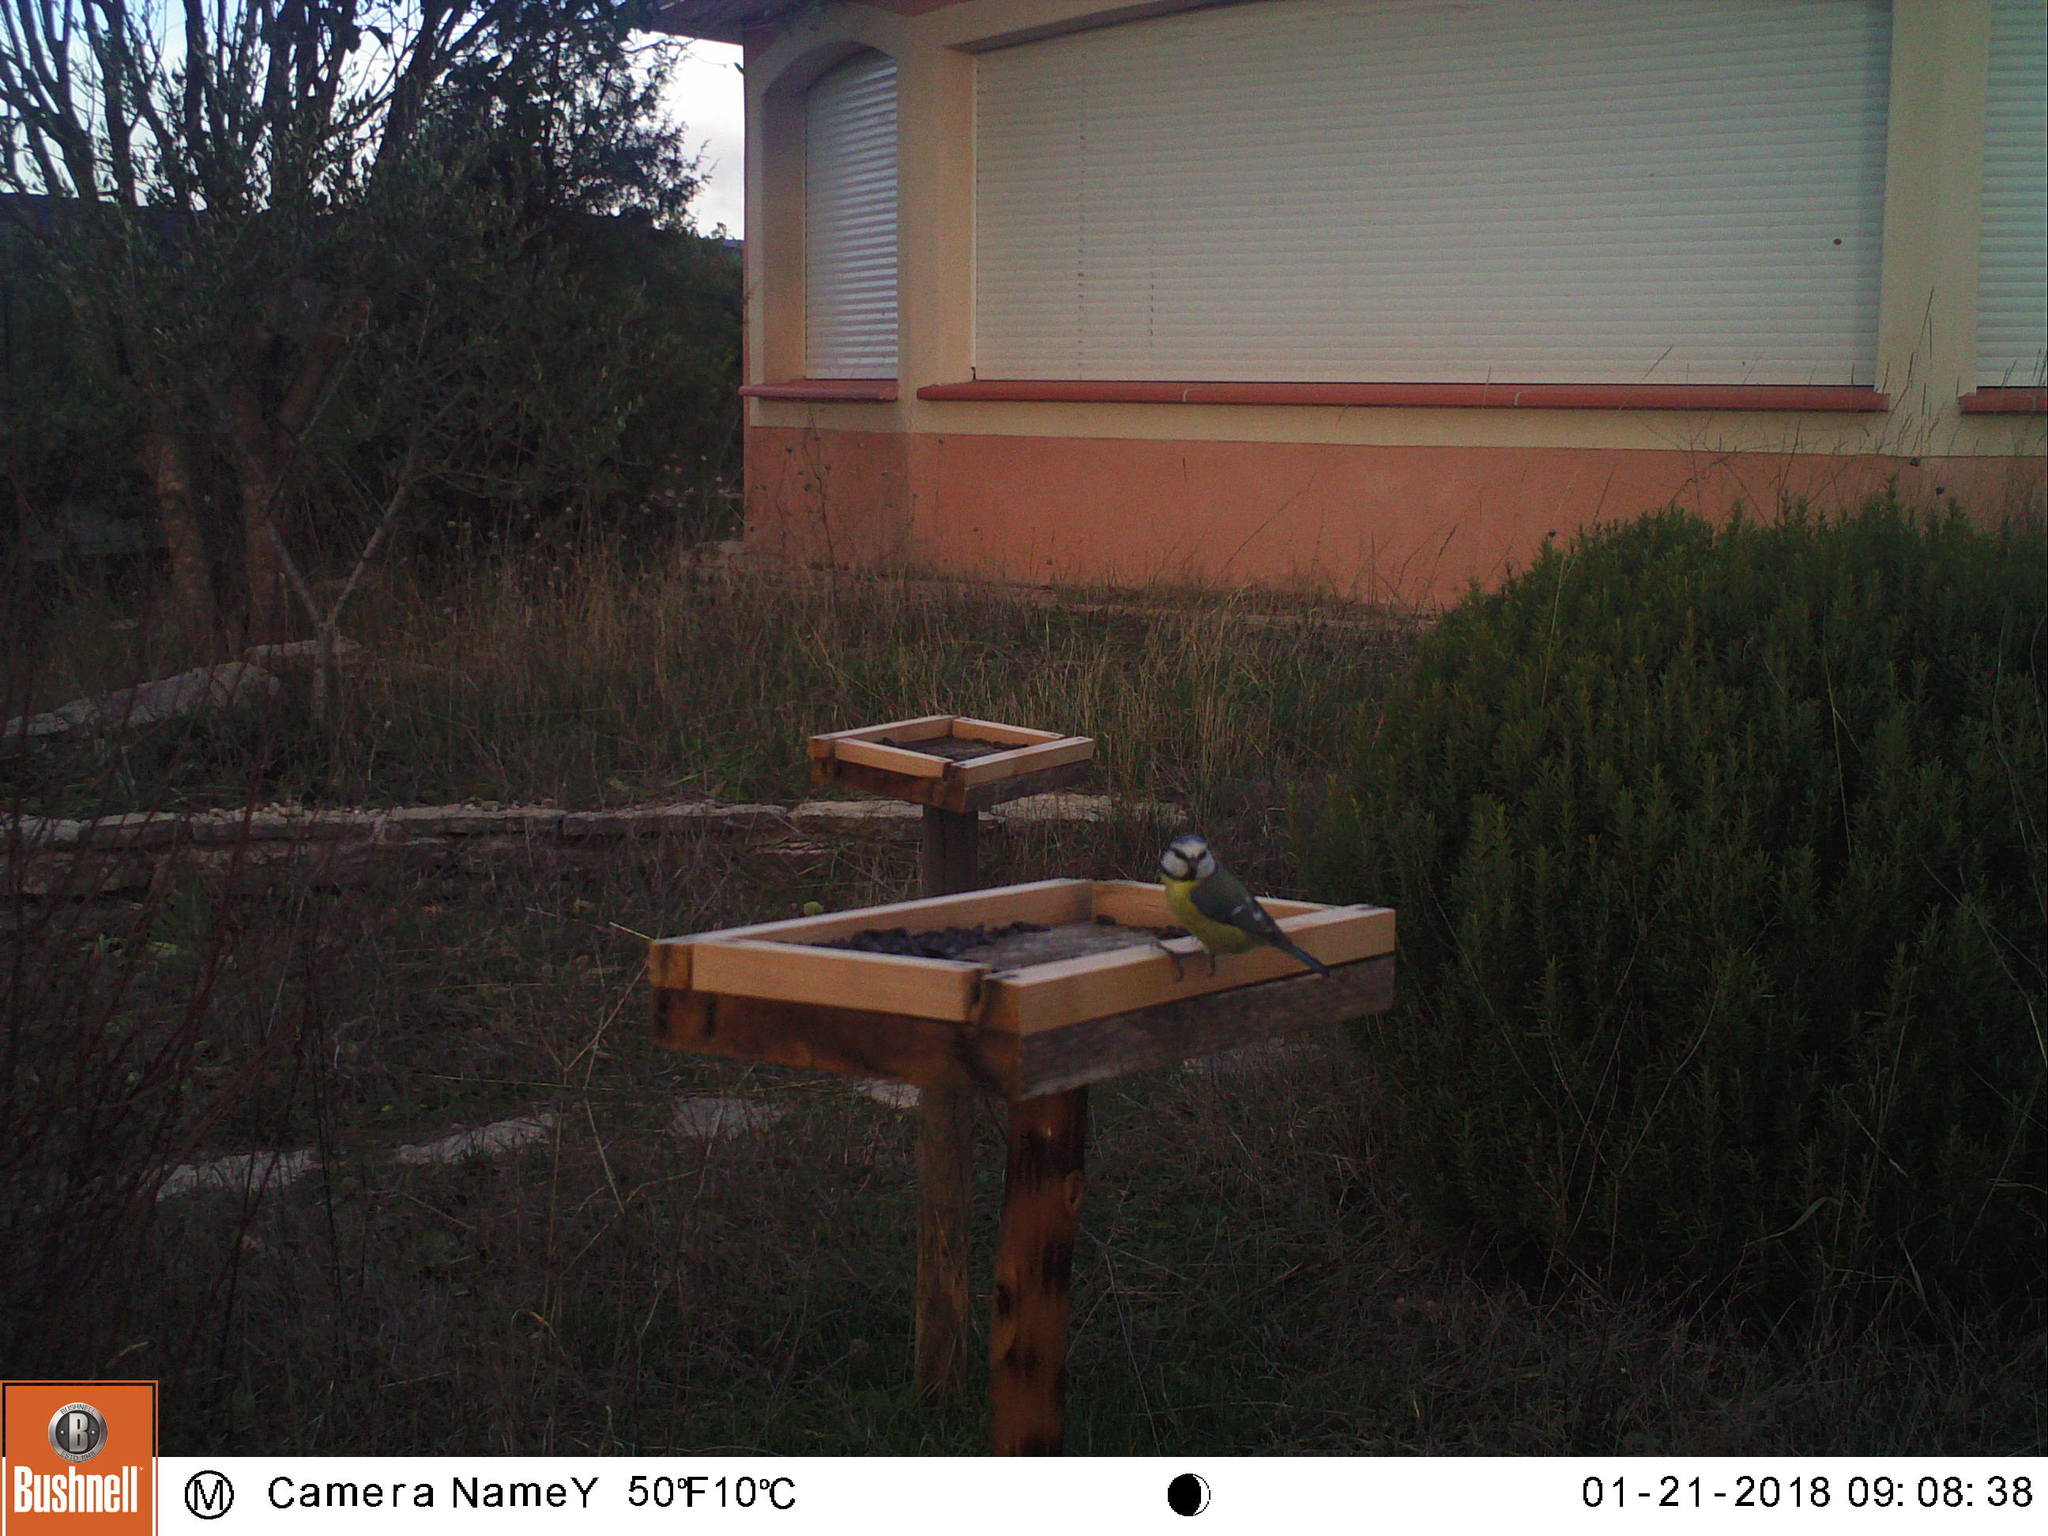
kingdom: Animalia
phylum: Chordata
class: Aves
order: Passeriformes
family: Paridae
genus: Cyanistes
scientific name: Cyanistes caeruleus
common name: Eurasian blue tit
